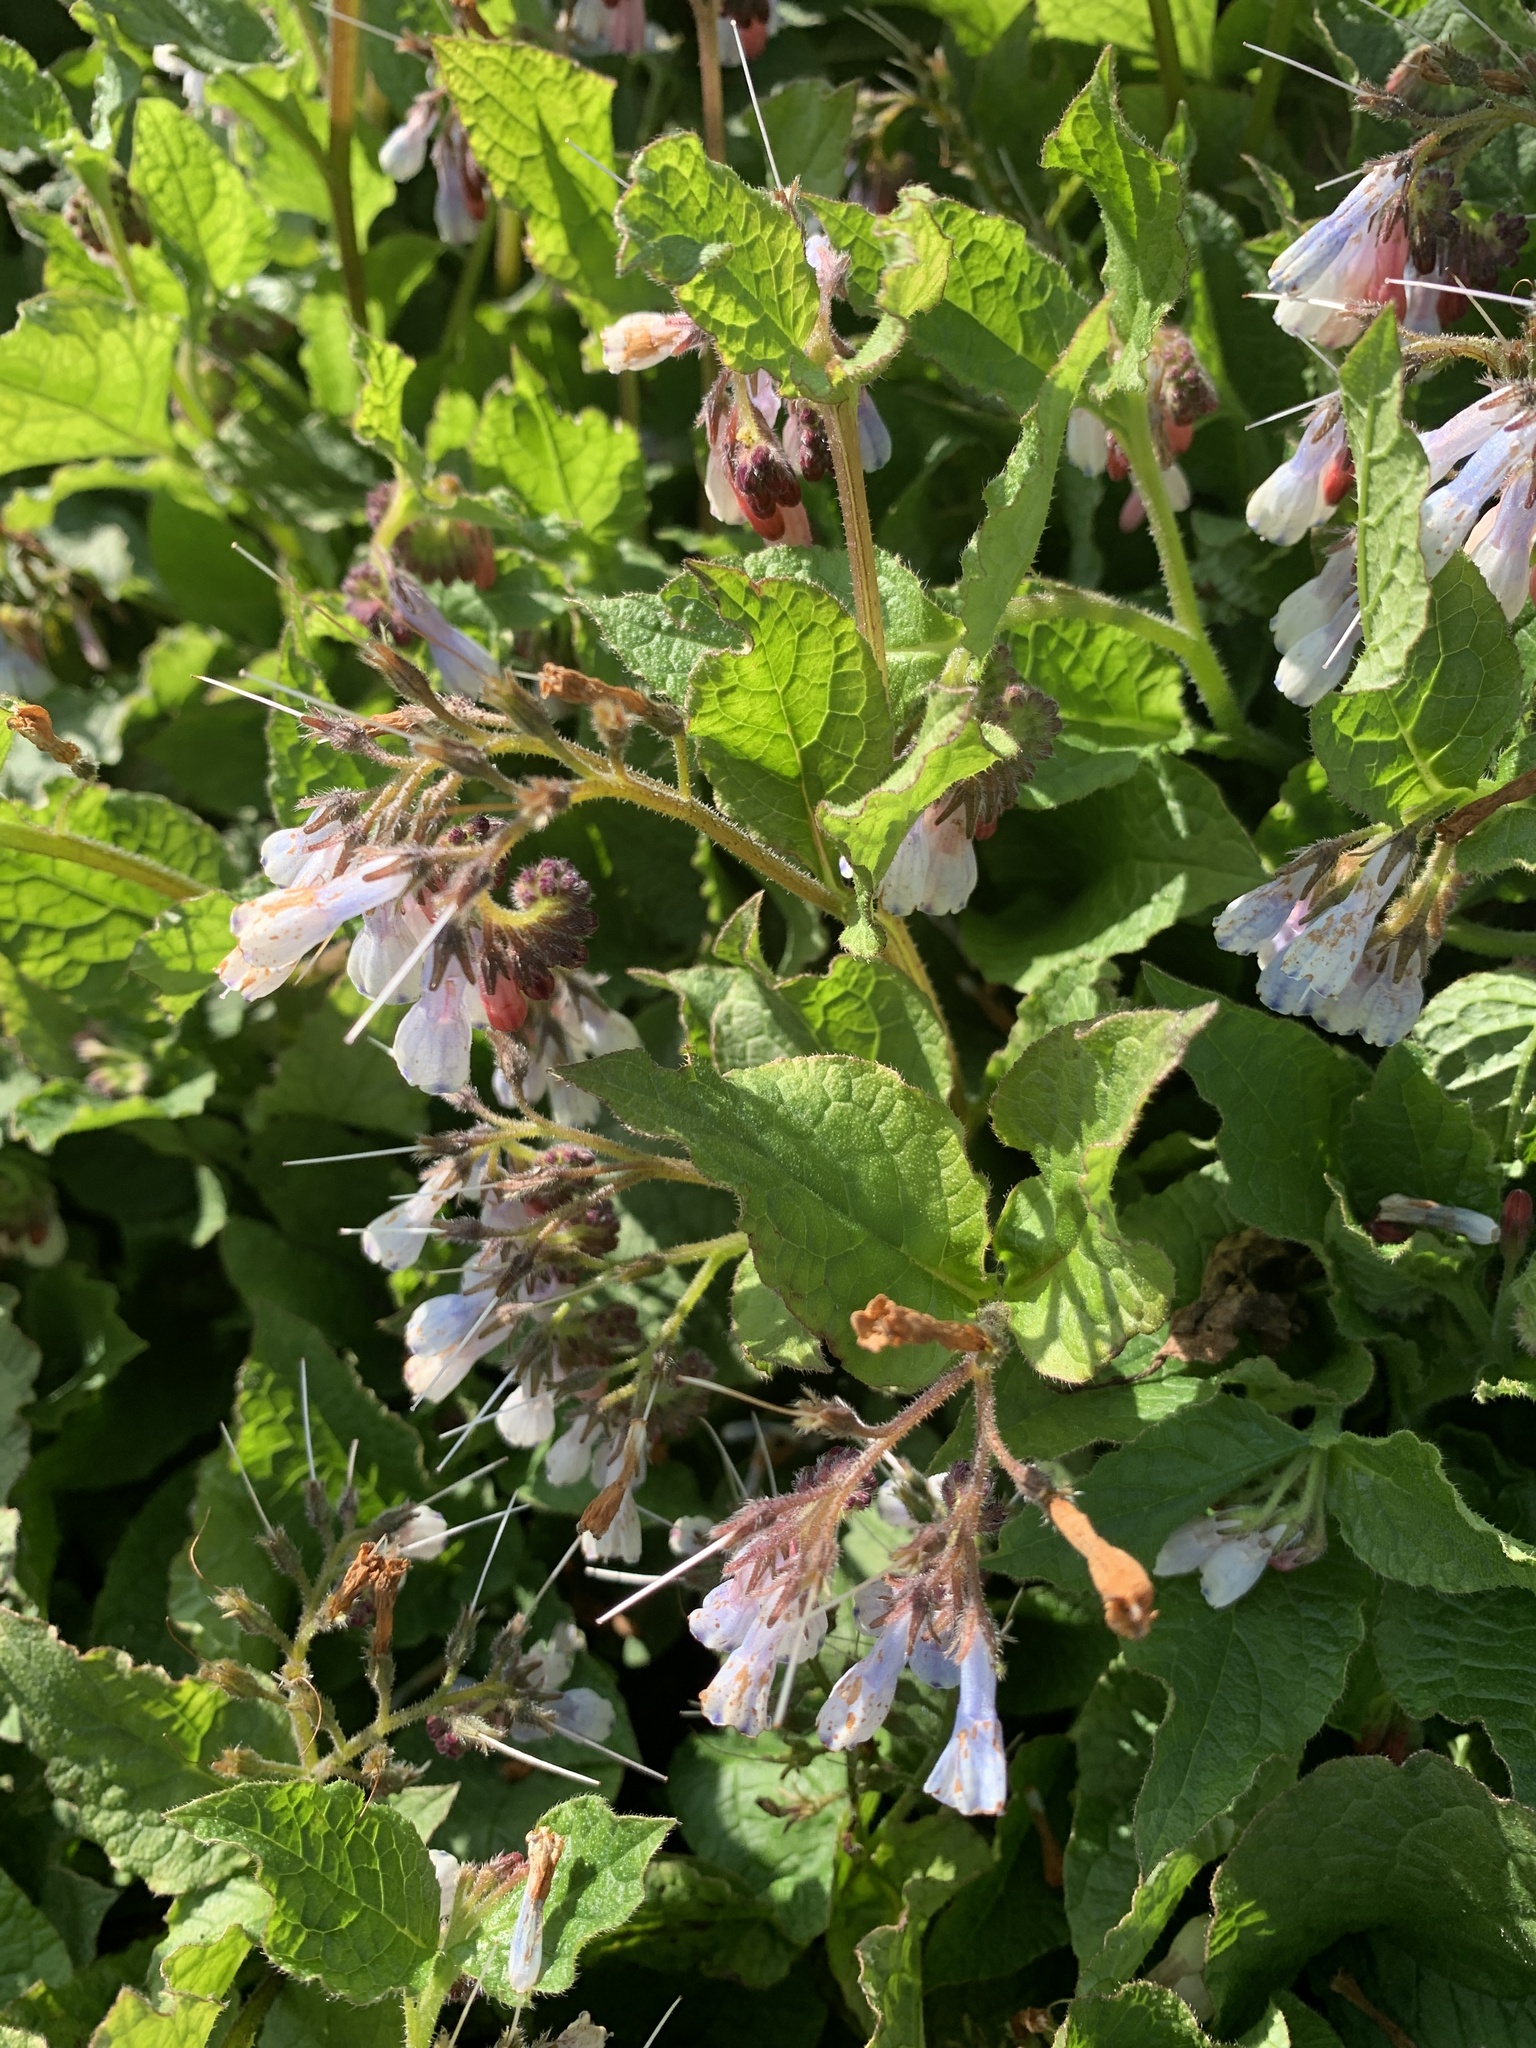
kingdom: Plantae
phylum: Tracheophyta
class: Magnoliopsida
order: Boraginales
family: Boraginaceae
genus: Symphytum
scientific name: Symphytum hidcotense
